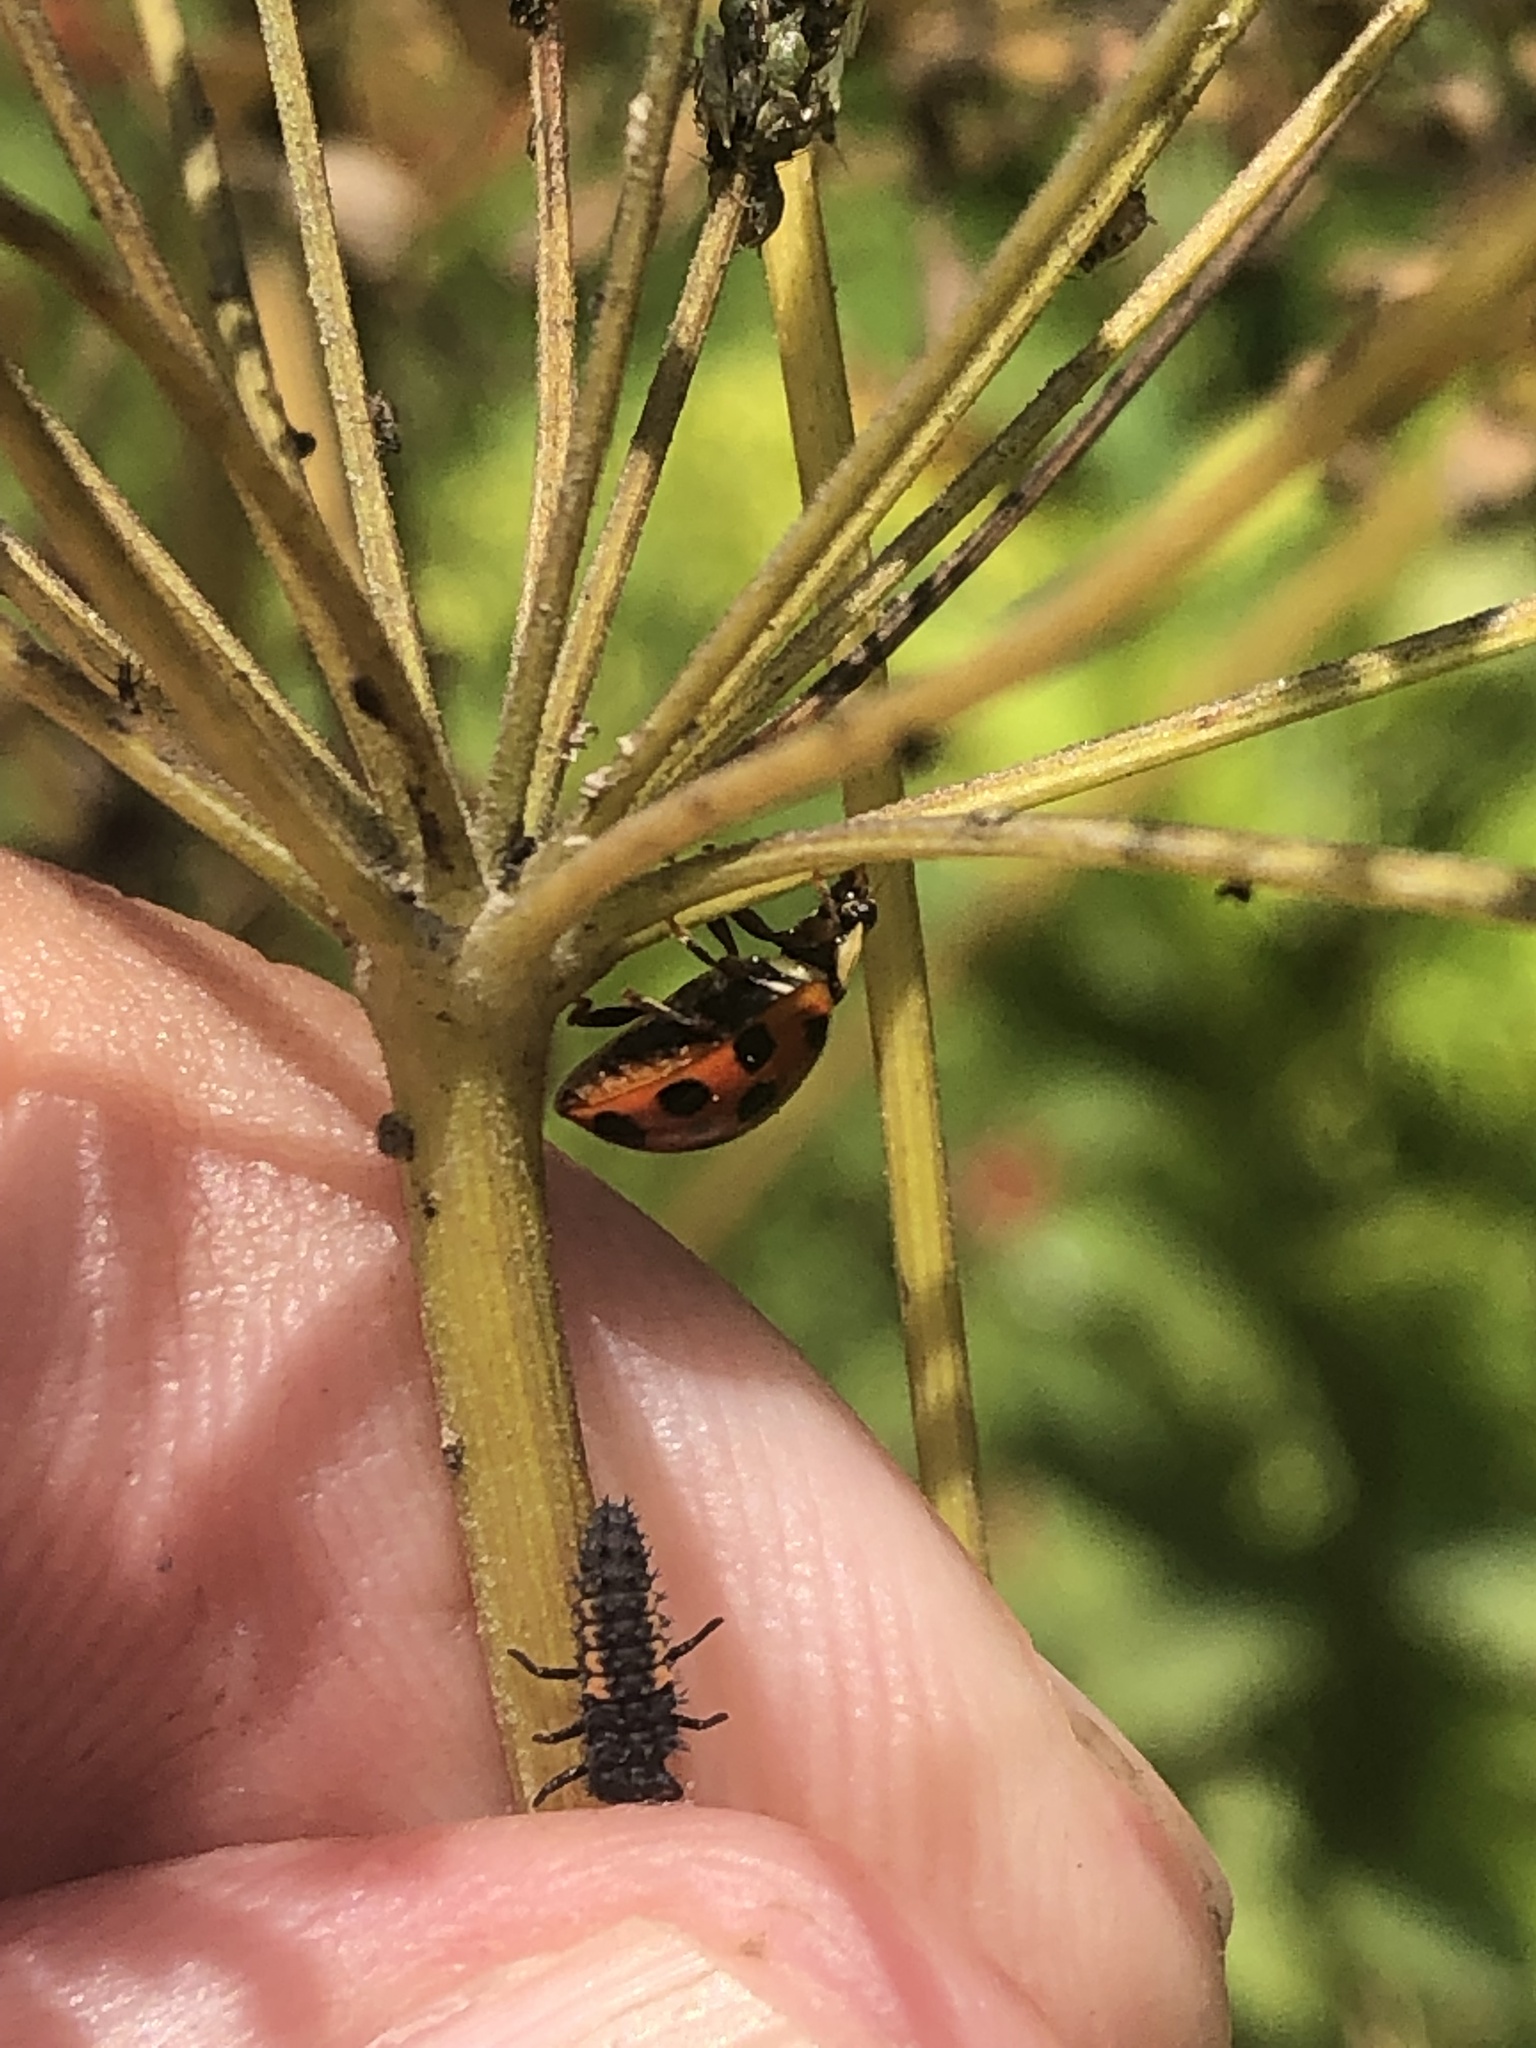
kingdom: Animalia
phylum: Arthropoda
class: Insecta
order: Coleoptera
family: Coccinellidae
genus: Harmonia
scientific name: Harmonia axyridis
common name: Harlequin ladybird
